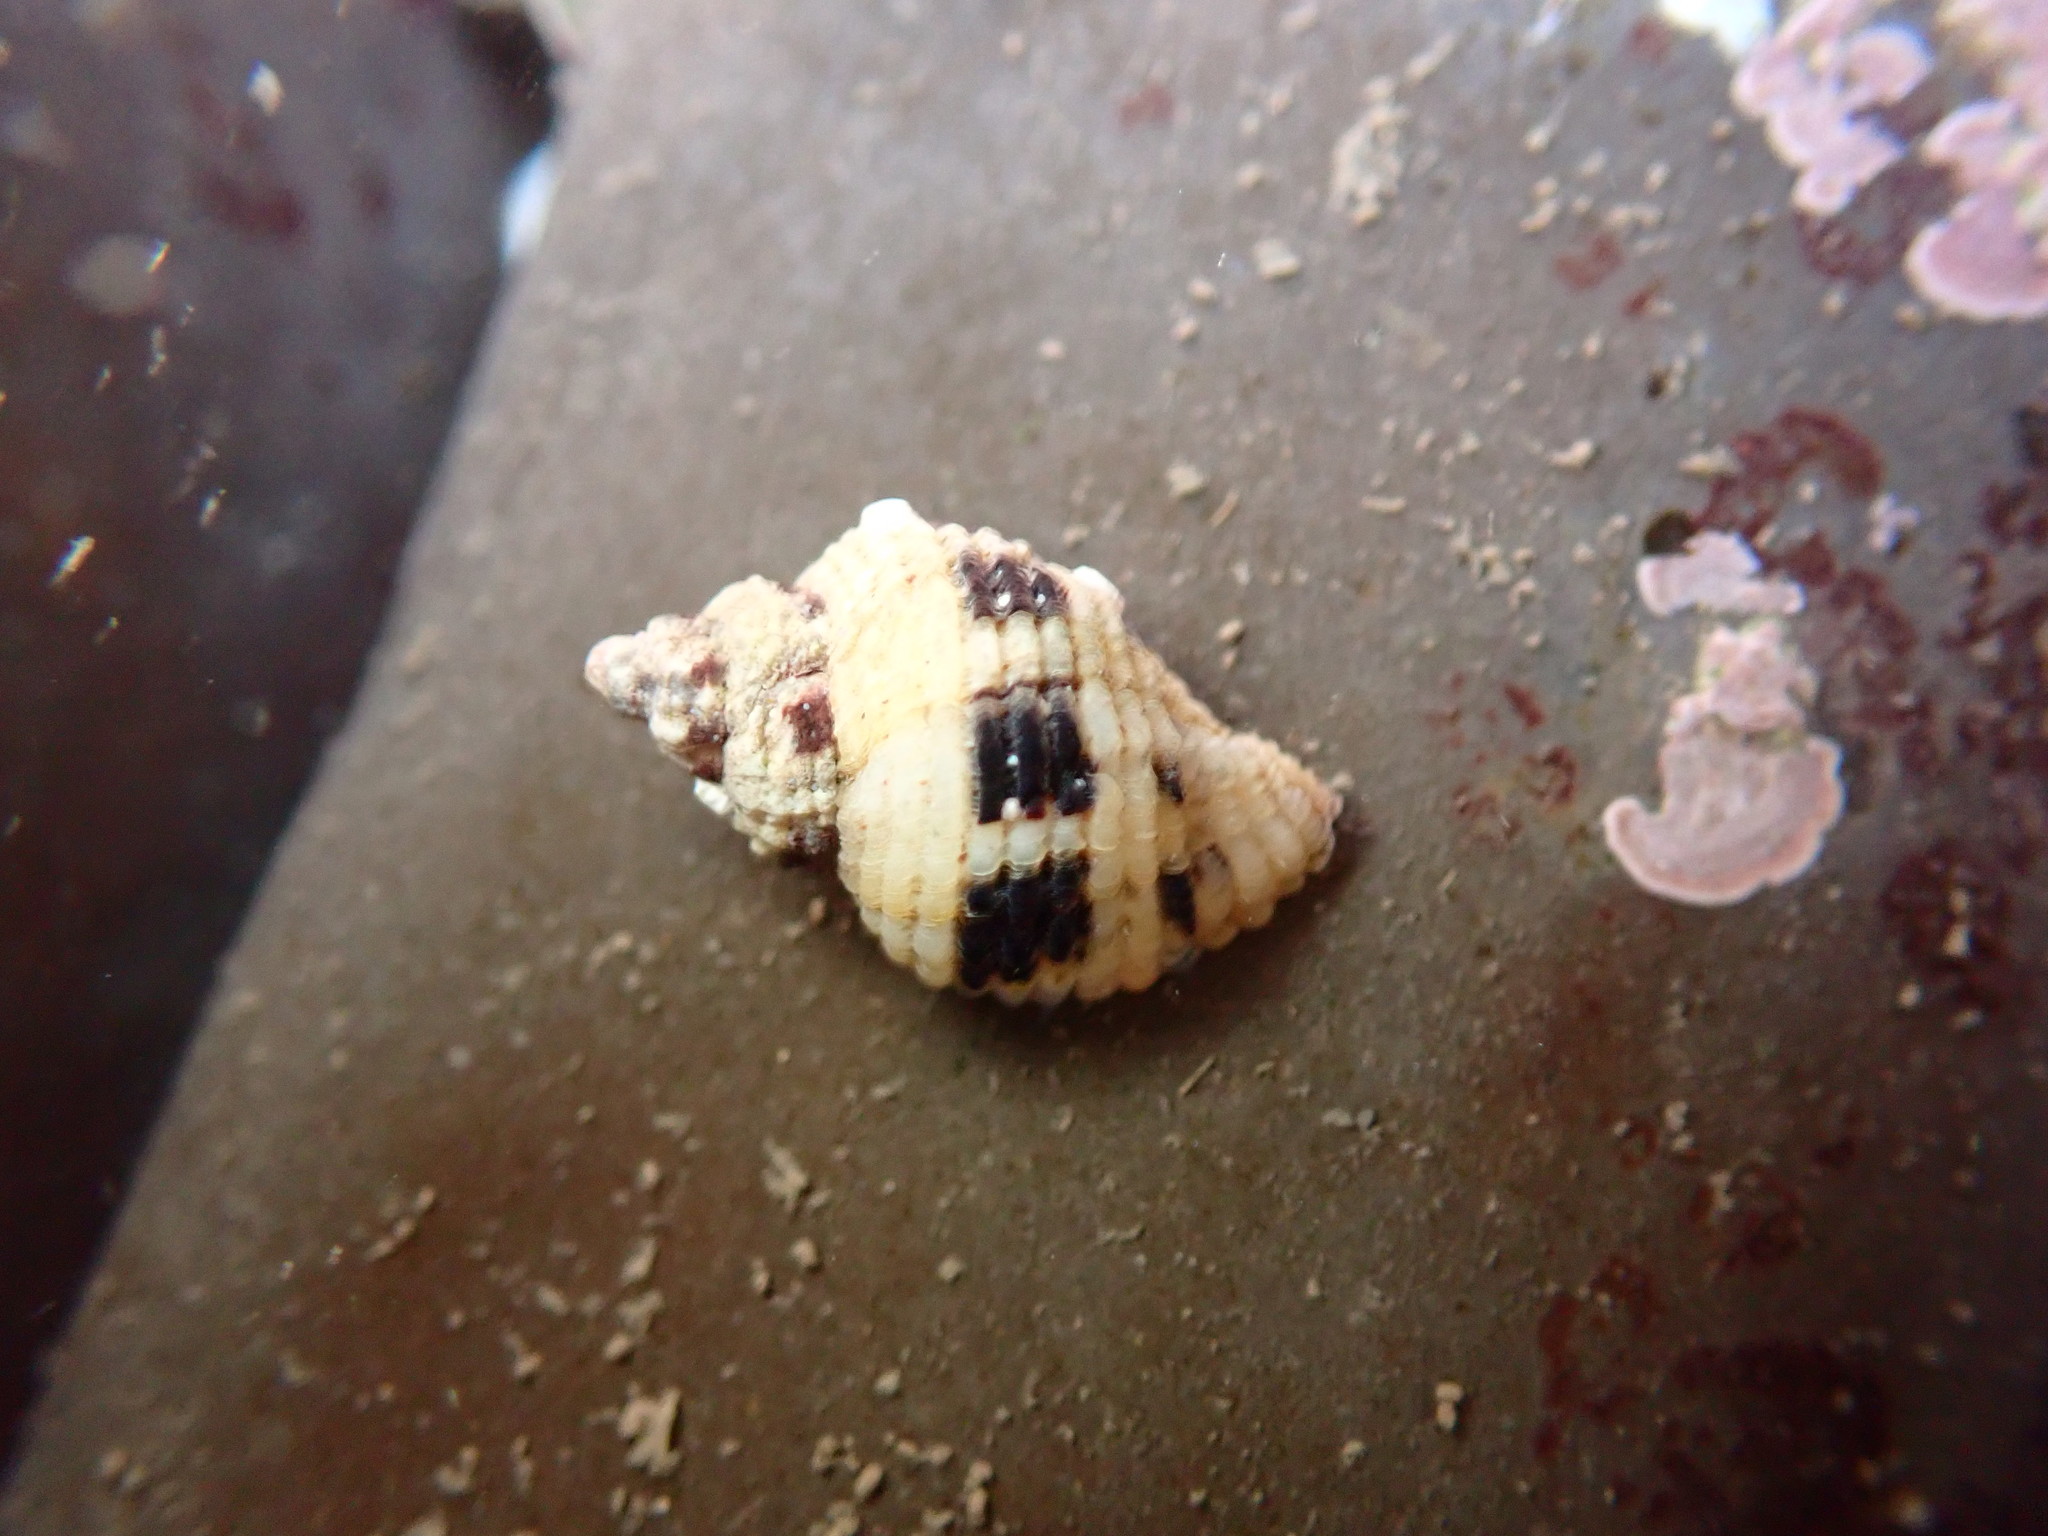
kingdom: Animalia
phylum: Mollusca
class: Gastropoda
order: Neogastropoda
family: Muricidae
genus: Paciocinebrina
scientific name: Paciocinebrina circumtexta
